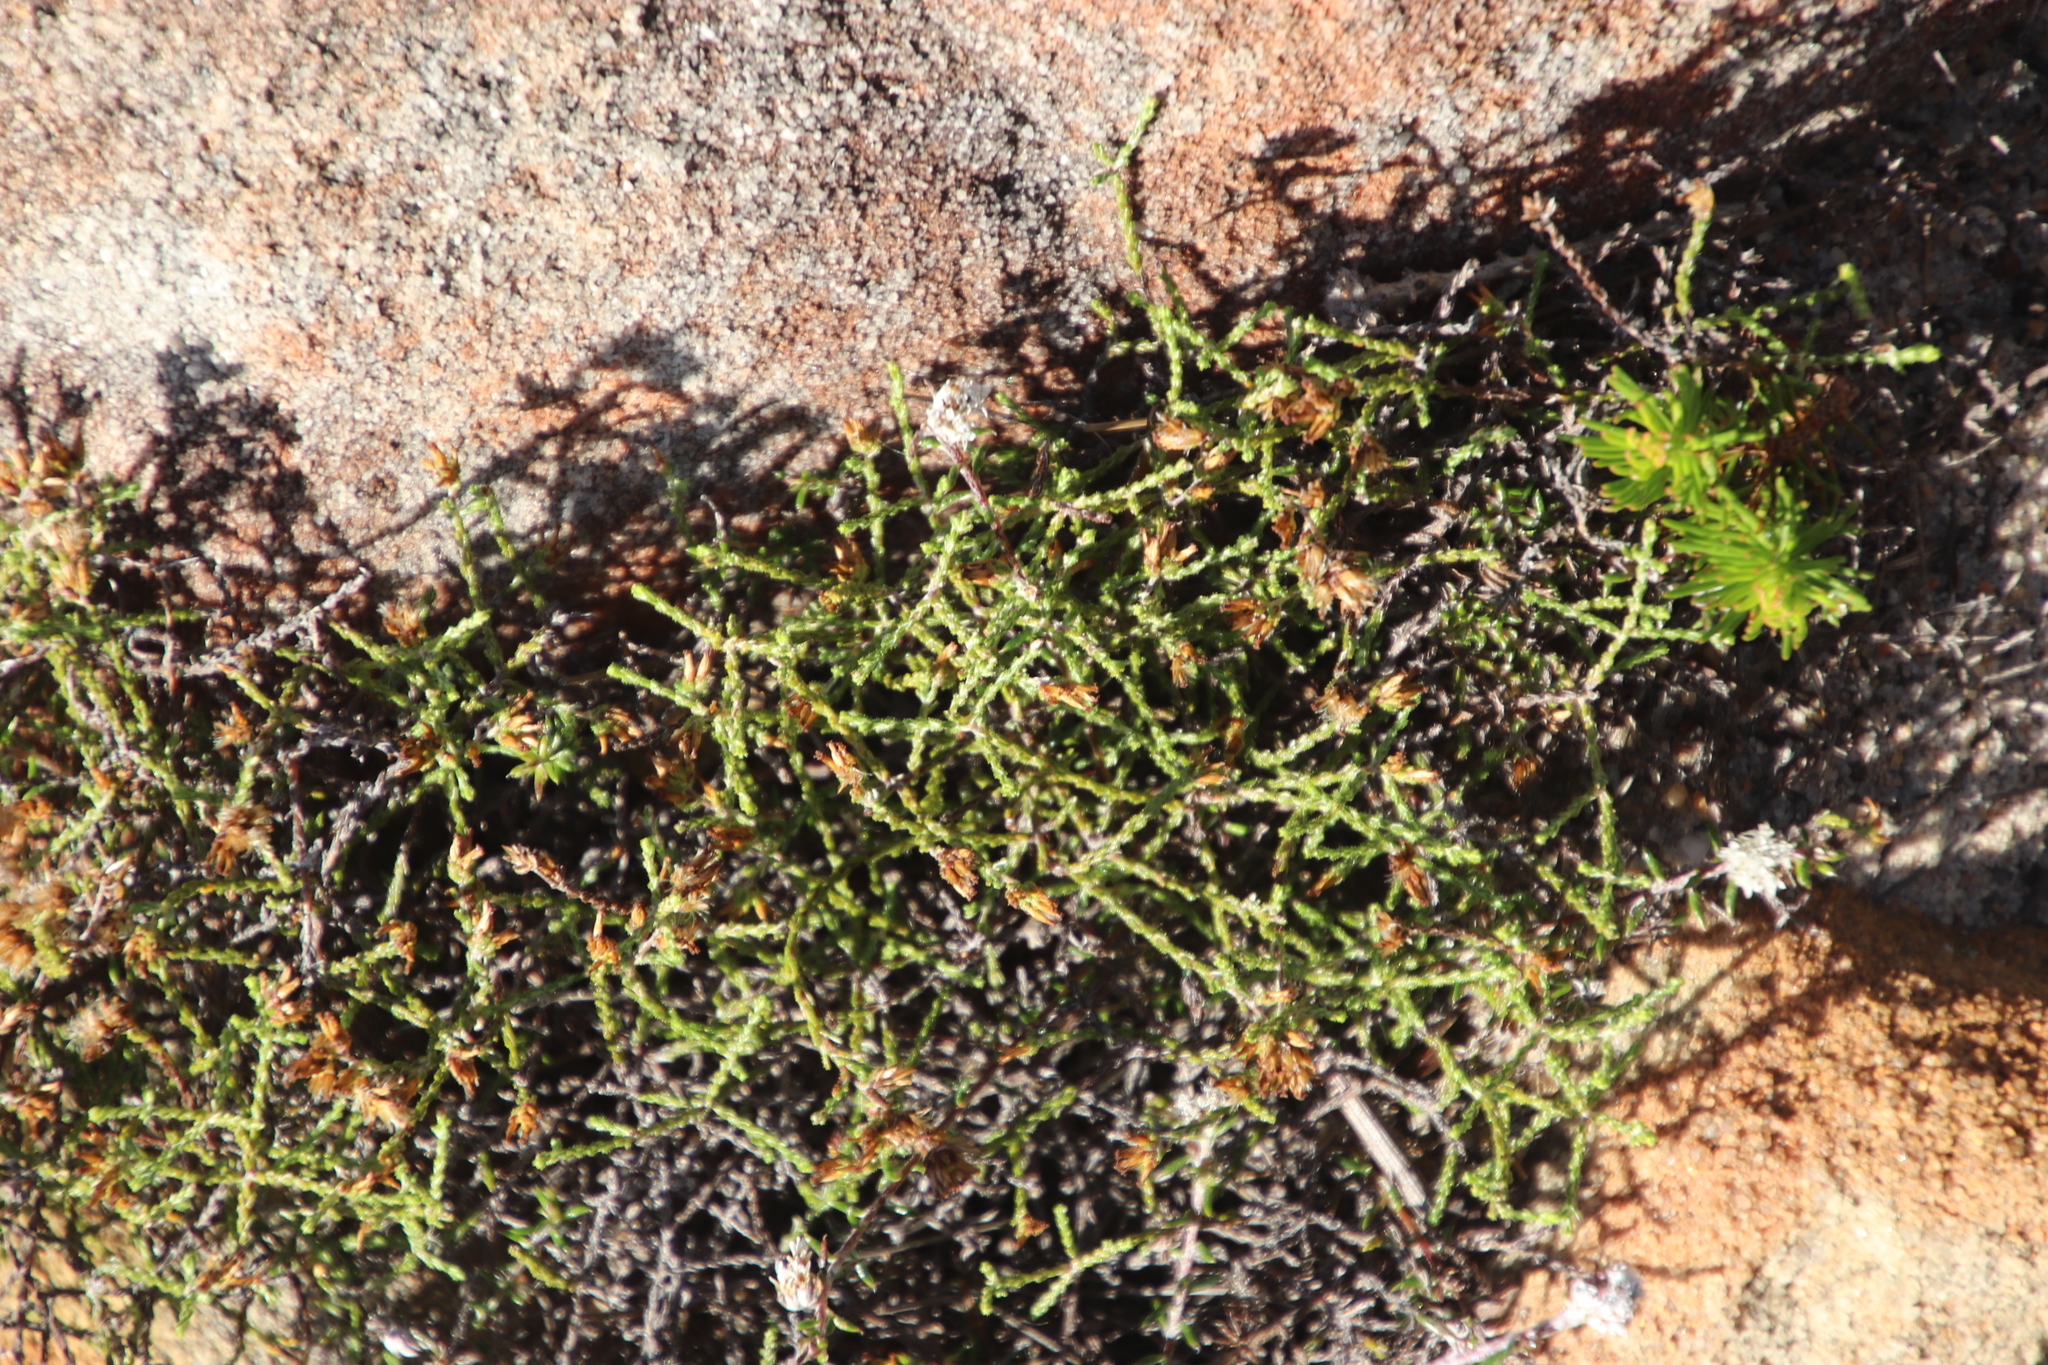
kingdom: Plantae
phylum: Tracheophyta
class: Magnoliopsida
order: Asterales
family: Asteraceae
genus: Myrovernix
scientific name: Myrovernix scaber
